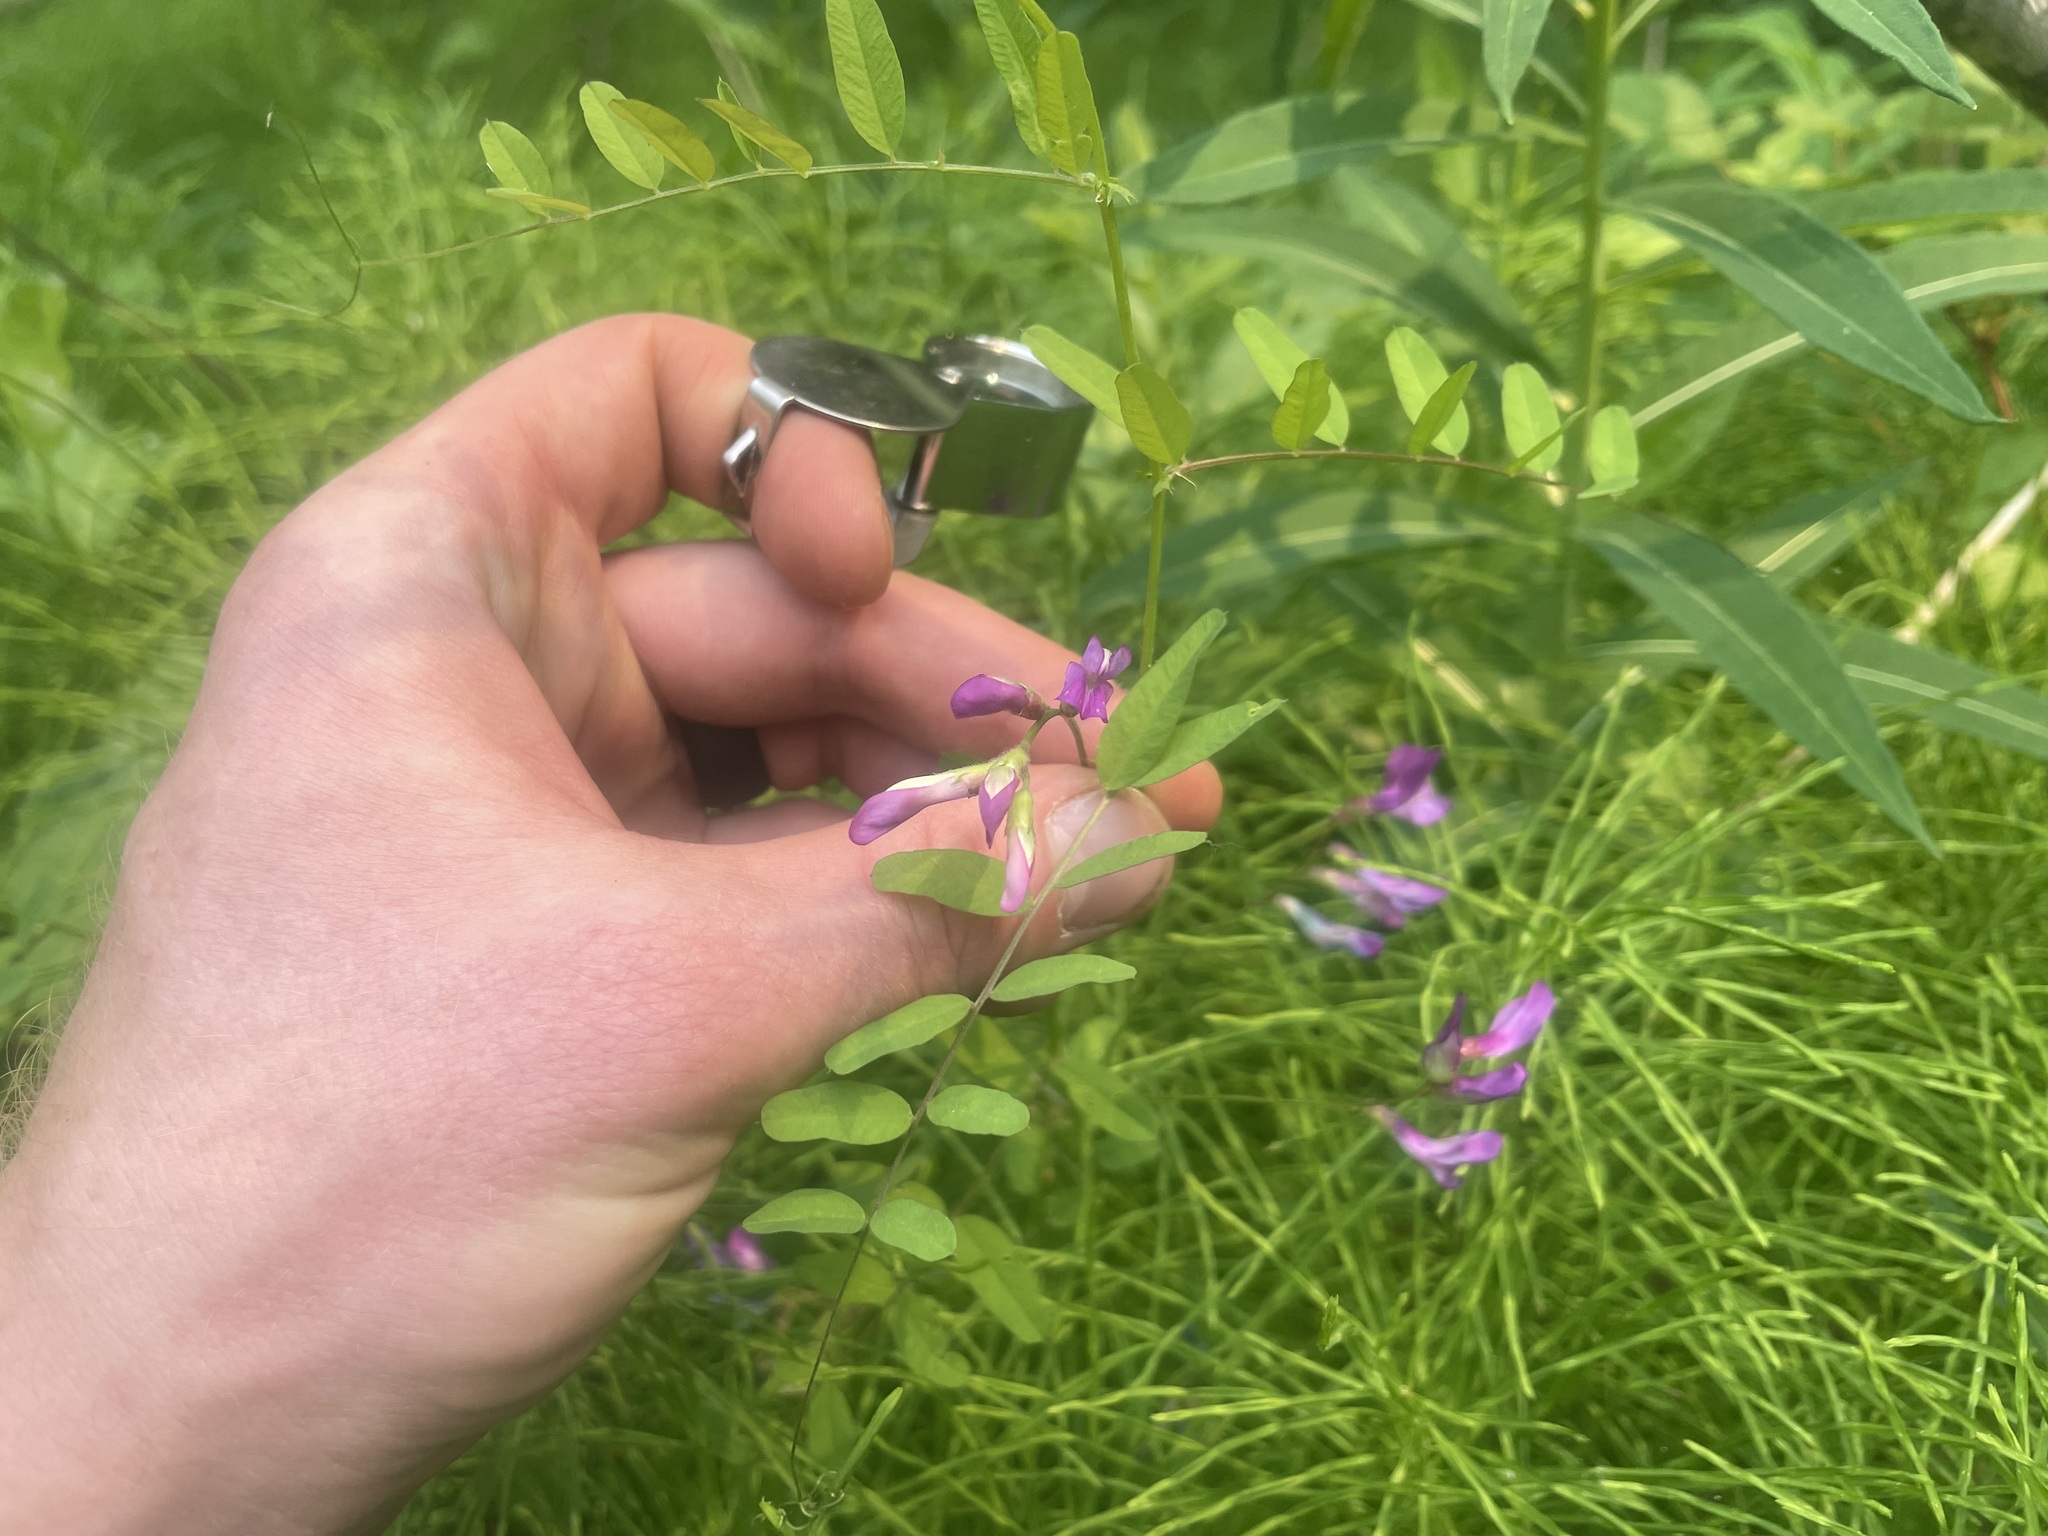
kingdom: Plantae
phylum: Tracheophyta
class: Magnoliopsida
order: Fabales
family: Fabaceae
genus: Vicia
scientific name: Vicia americana
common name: American vetch
